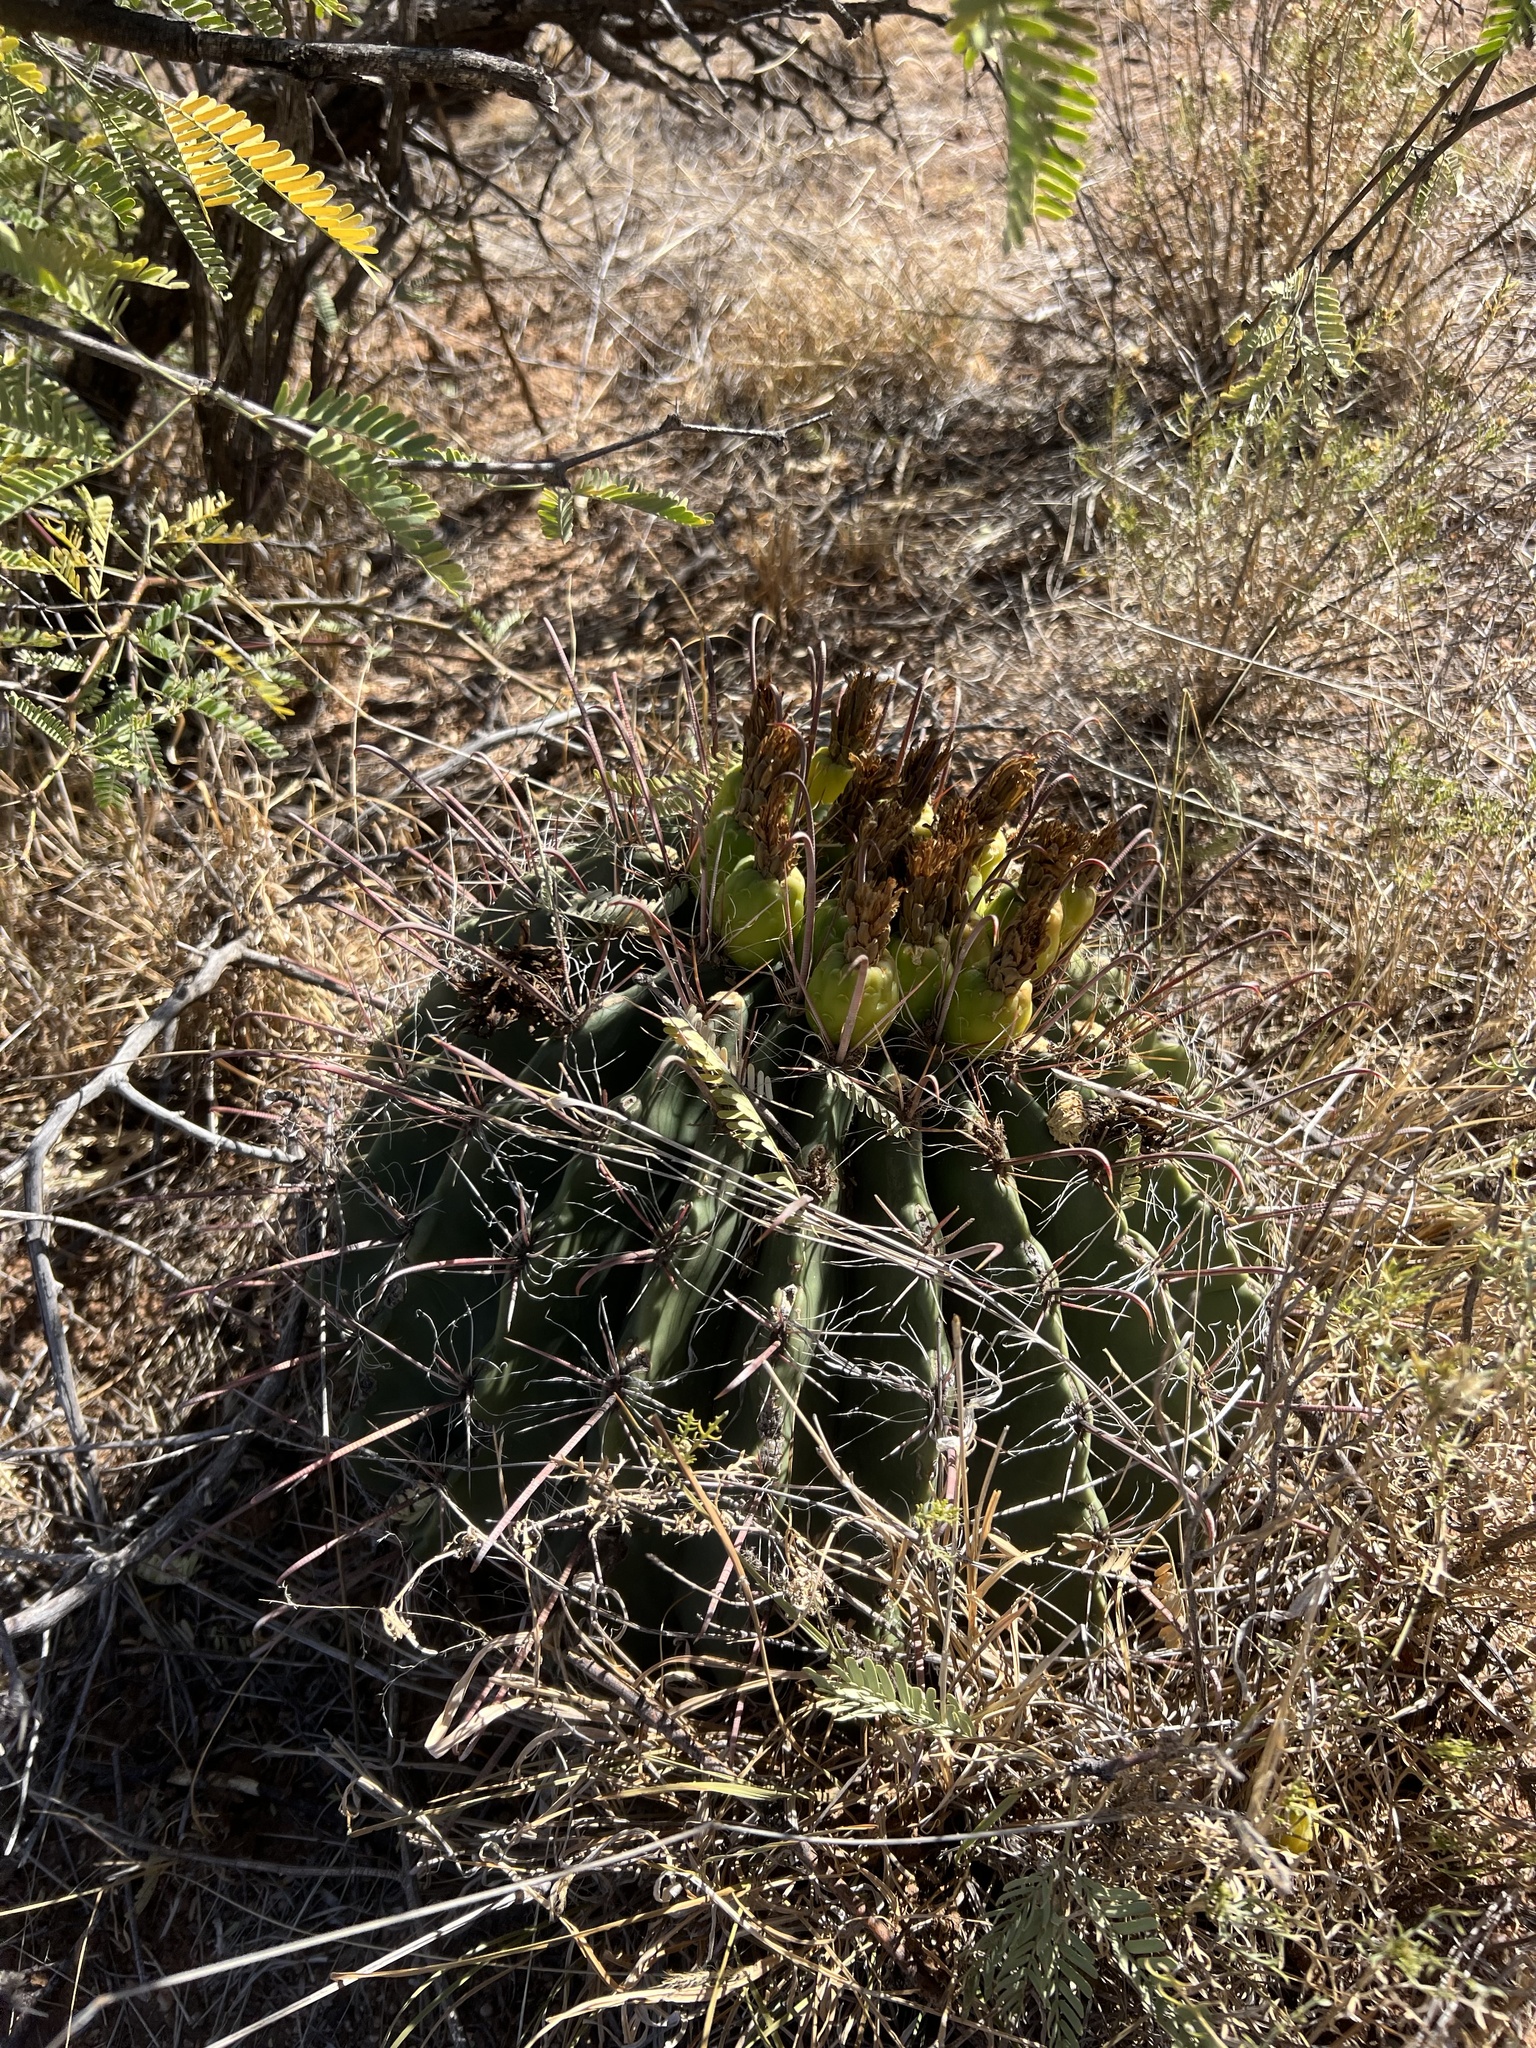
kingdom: Plantae
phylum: Tracheophyta
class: Magnoliopsida
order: Caryophyllales
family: Cactaceae
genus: Ferocactus
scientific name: Ferocactus wislizeni
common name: Candy barrel cactus
